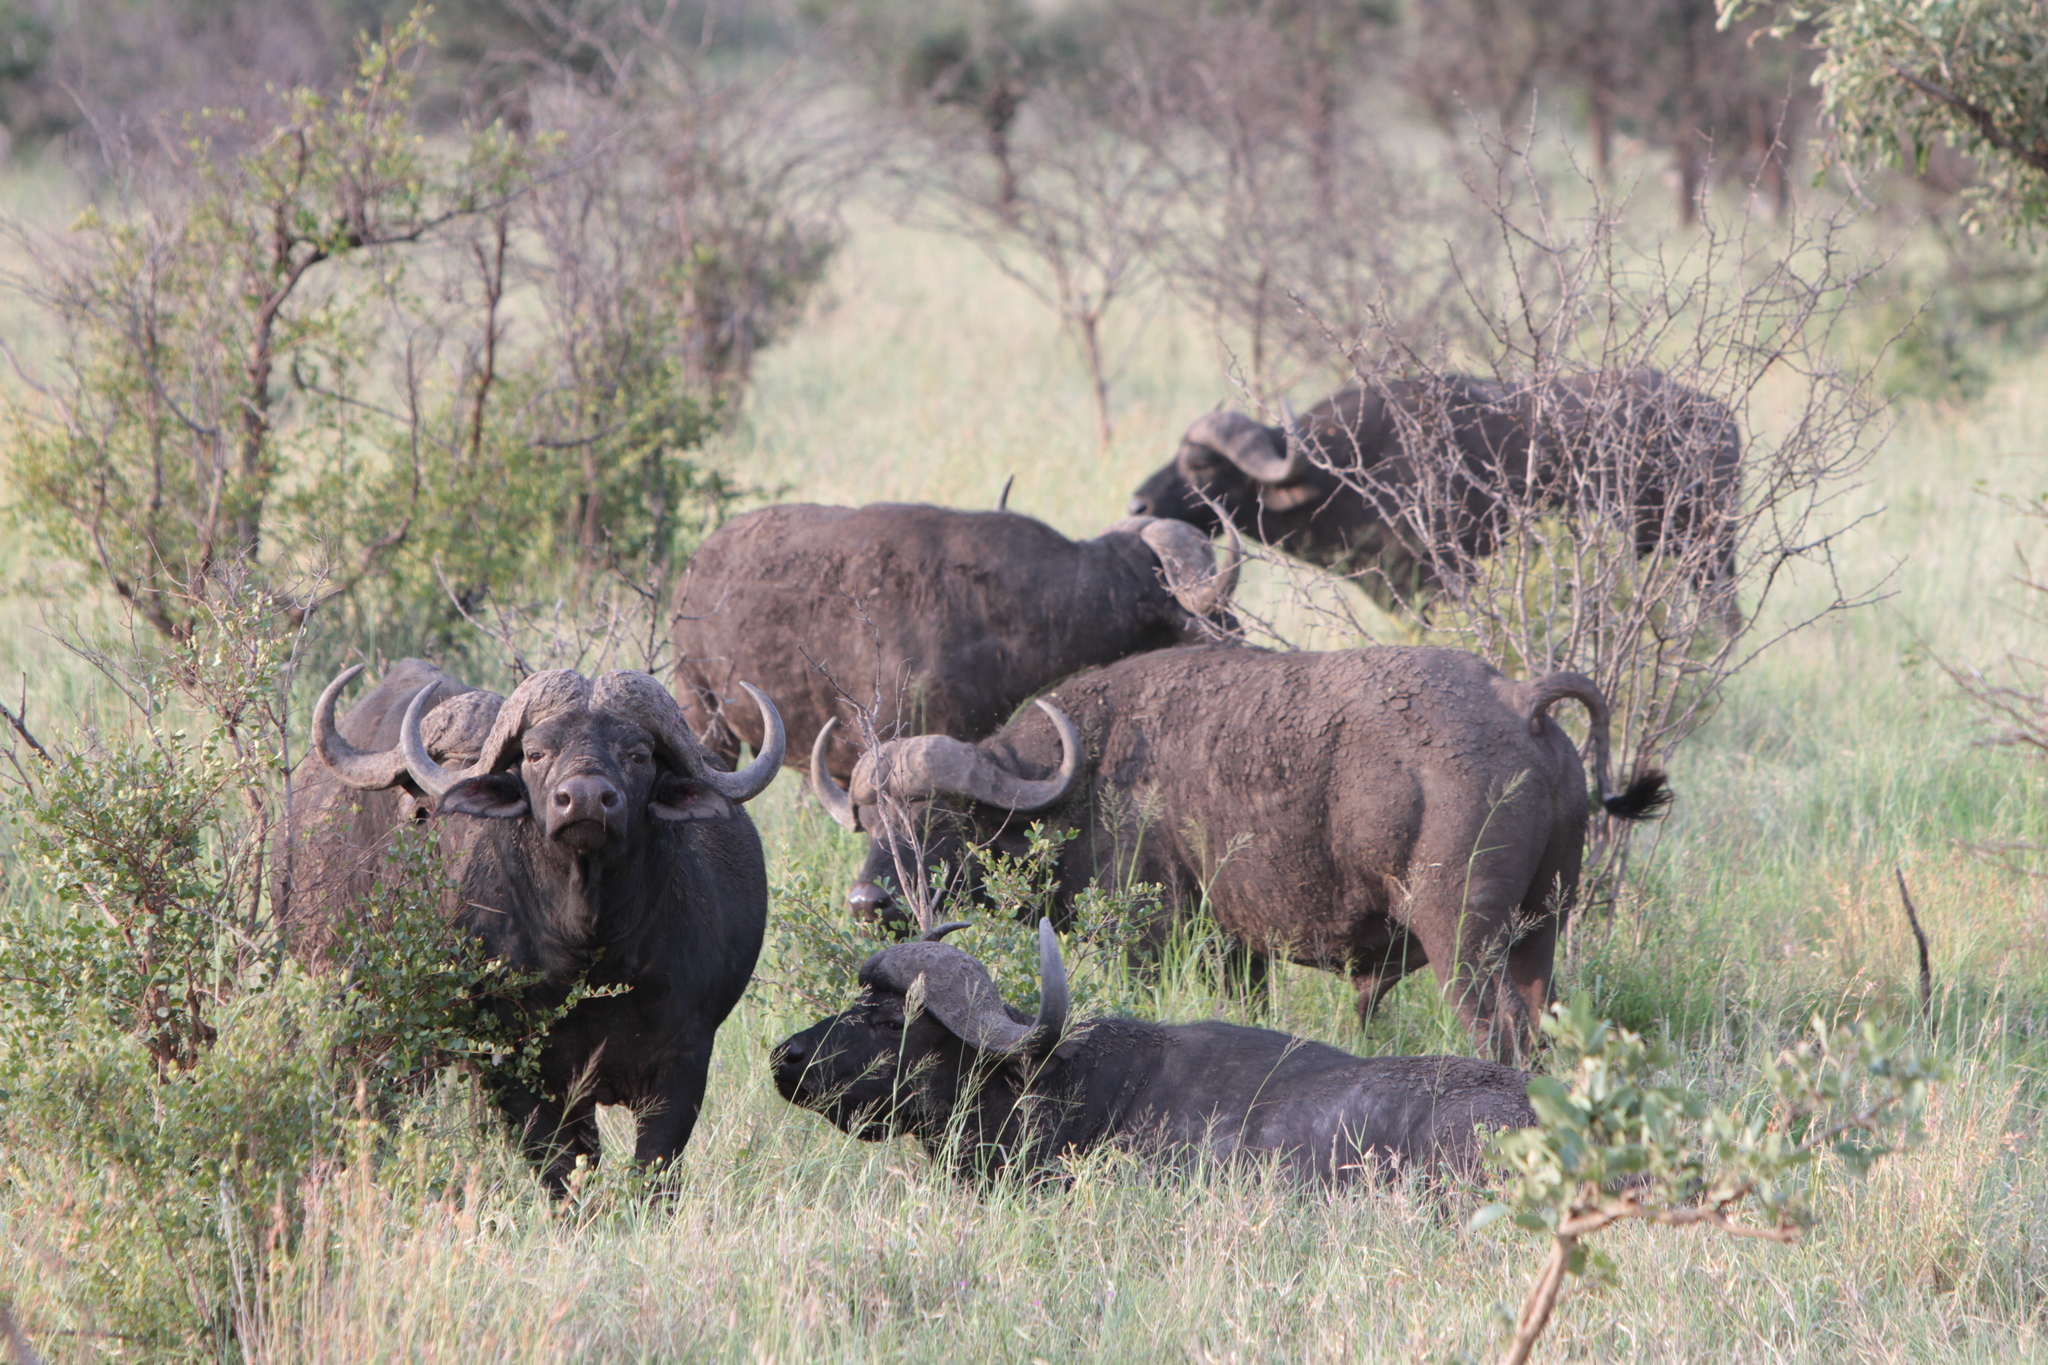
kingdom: Animalia
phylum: Chordata
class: Mammalia
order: Artiodactyla
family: Bovidae
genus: Syncerus
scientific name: Syncerus caffer
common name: African buffalo
